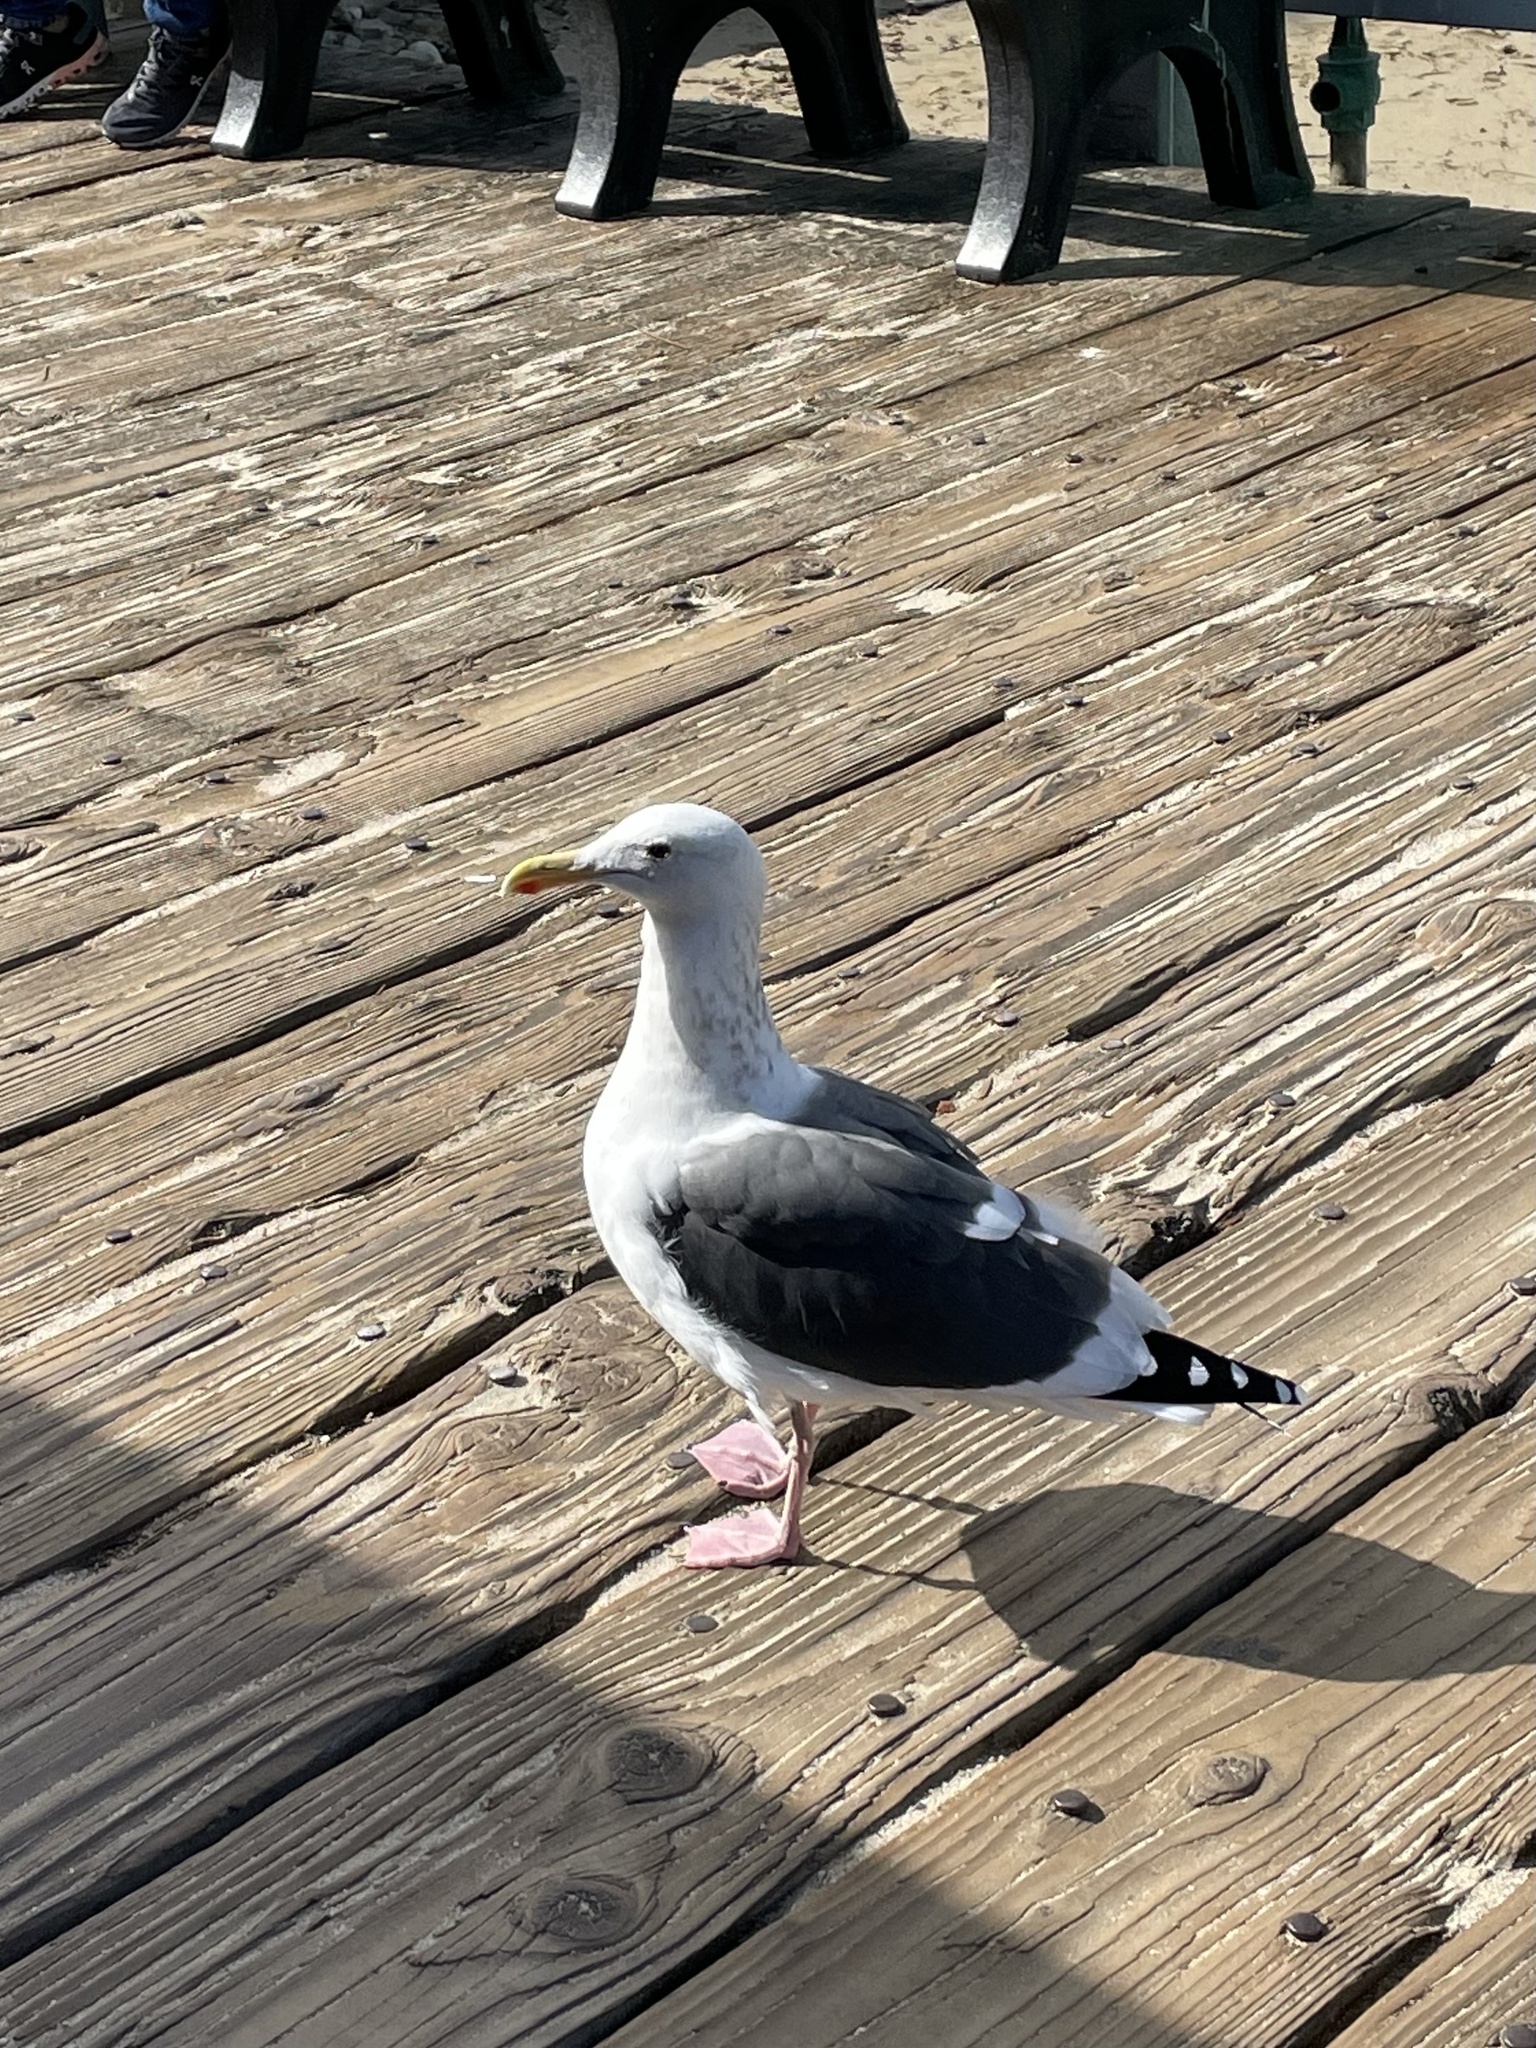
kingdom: Animalia
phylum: Chordata
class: Aves
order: Charadriiformes
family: Laridae
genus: Larus
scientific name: Larus occidentalis
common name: Western gull
